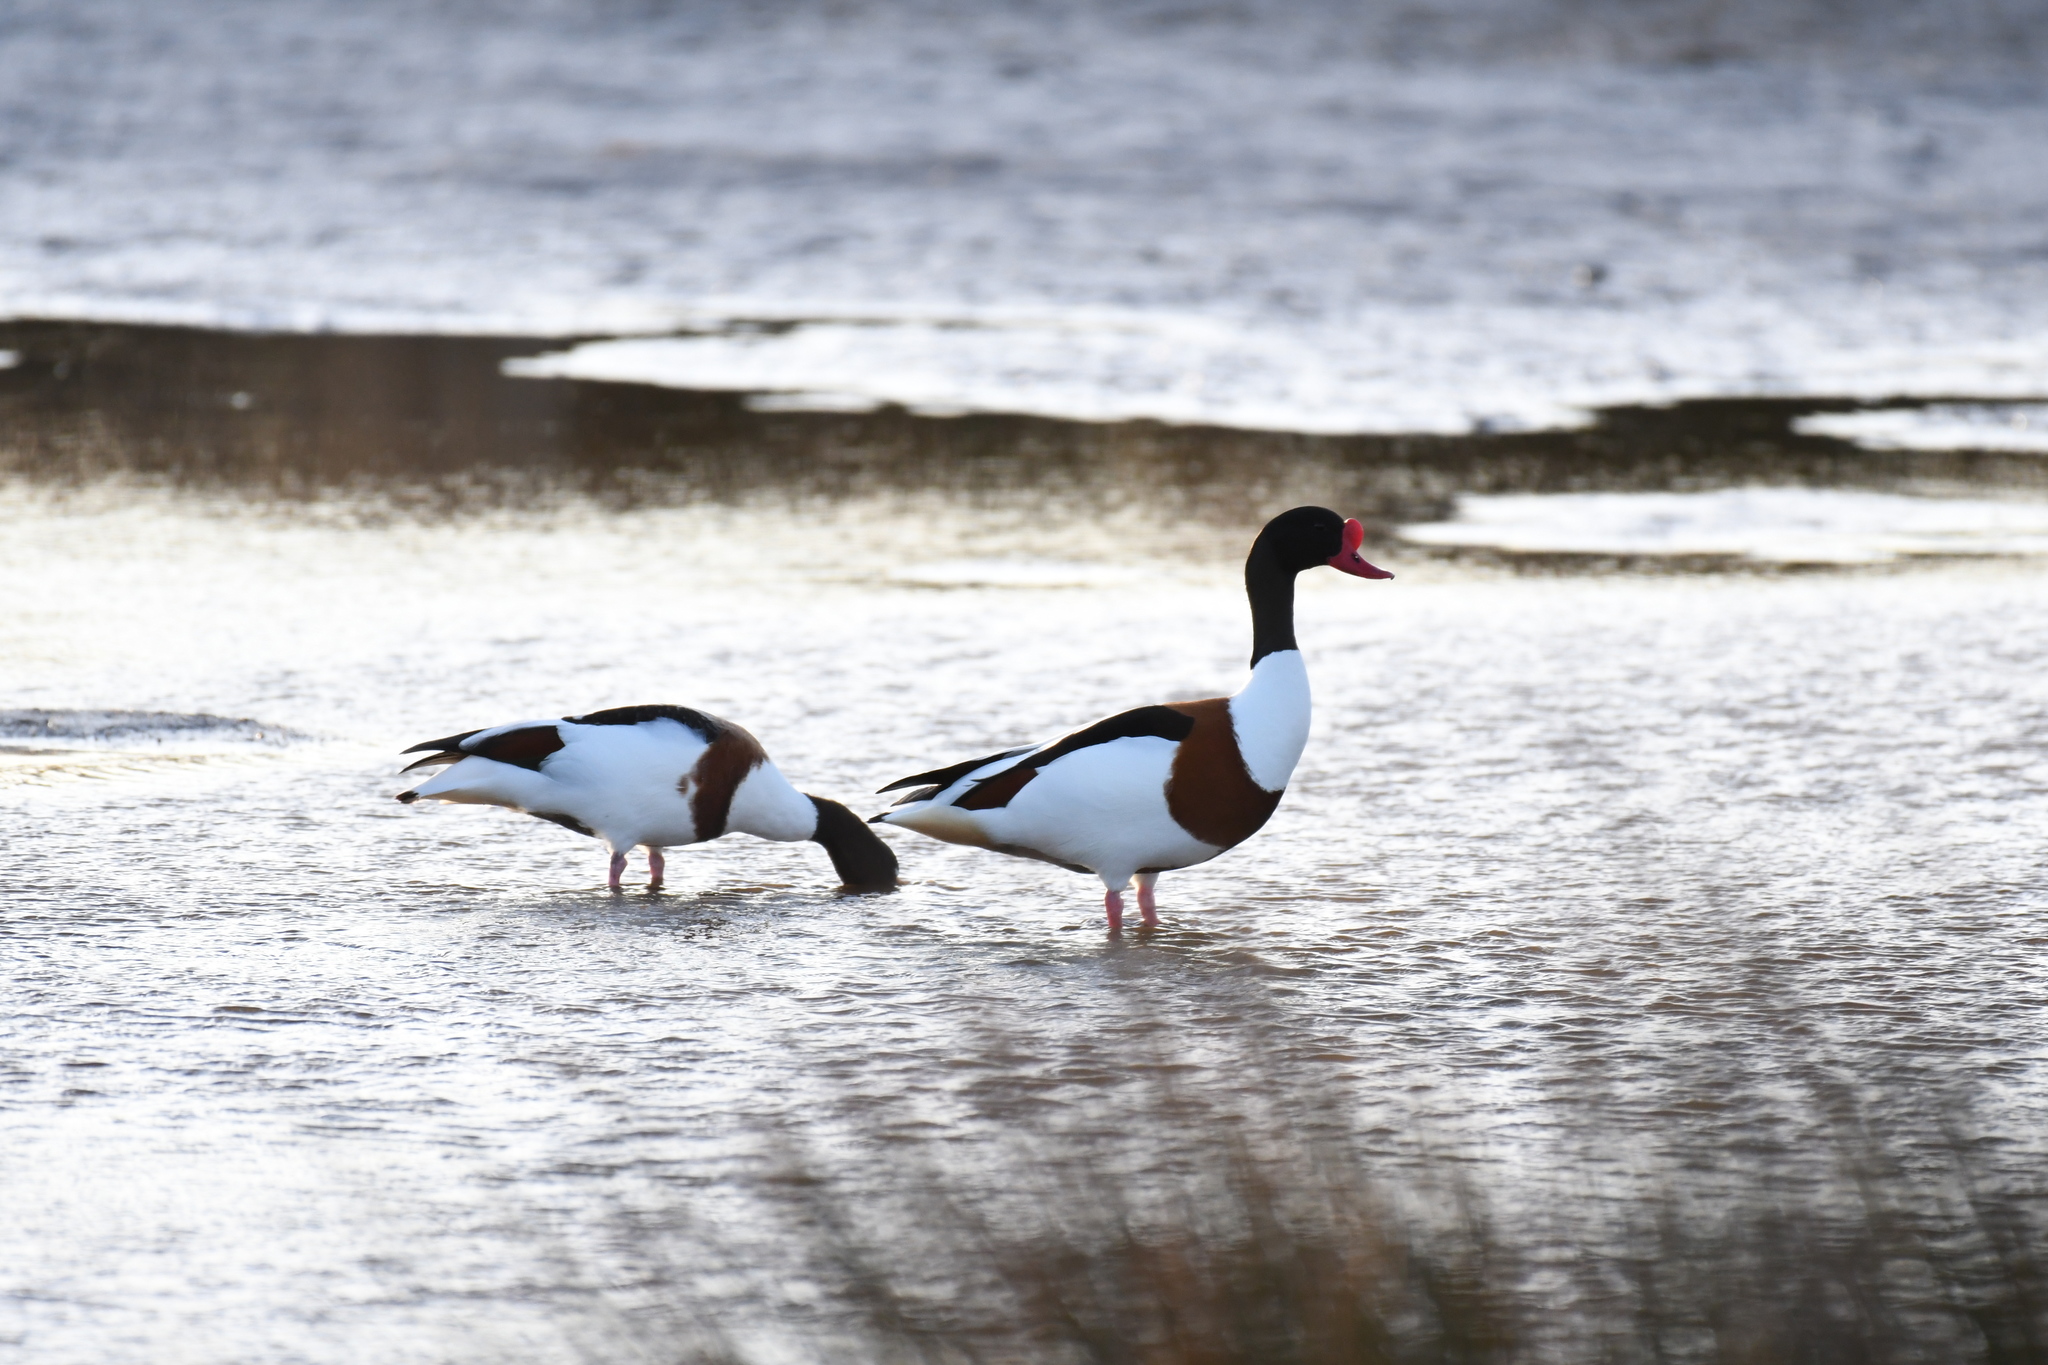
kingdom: Animalia
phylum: Chordata
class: Aves
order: Anseriformes
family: Anatidae
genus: Tadorna
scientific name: Tadorna tadorna
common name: Common shelduck
